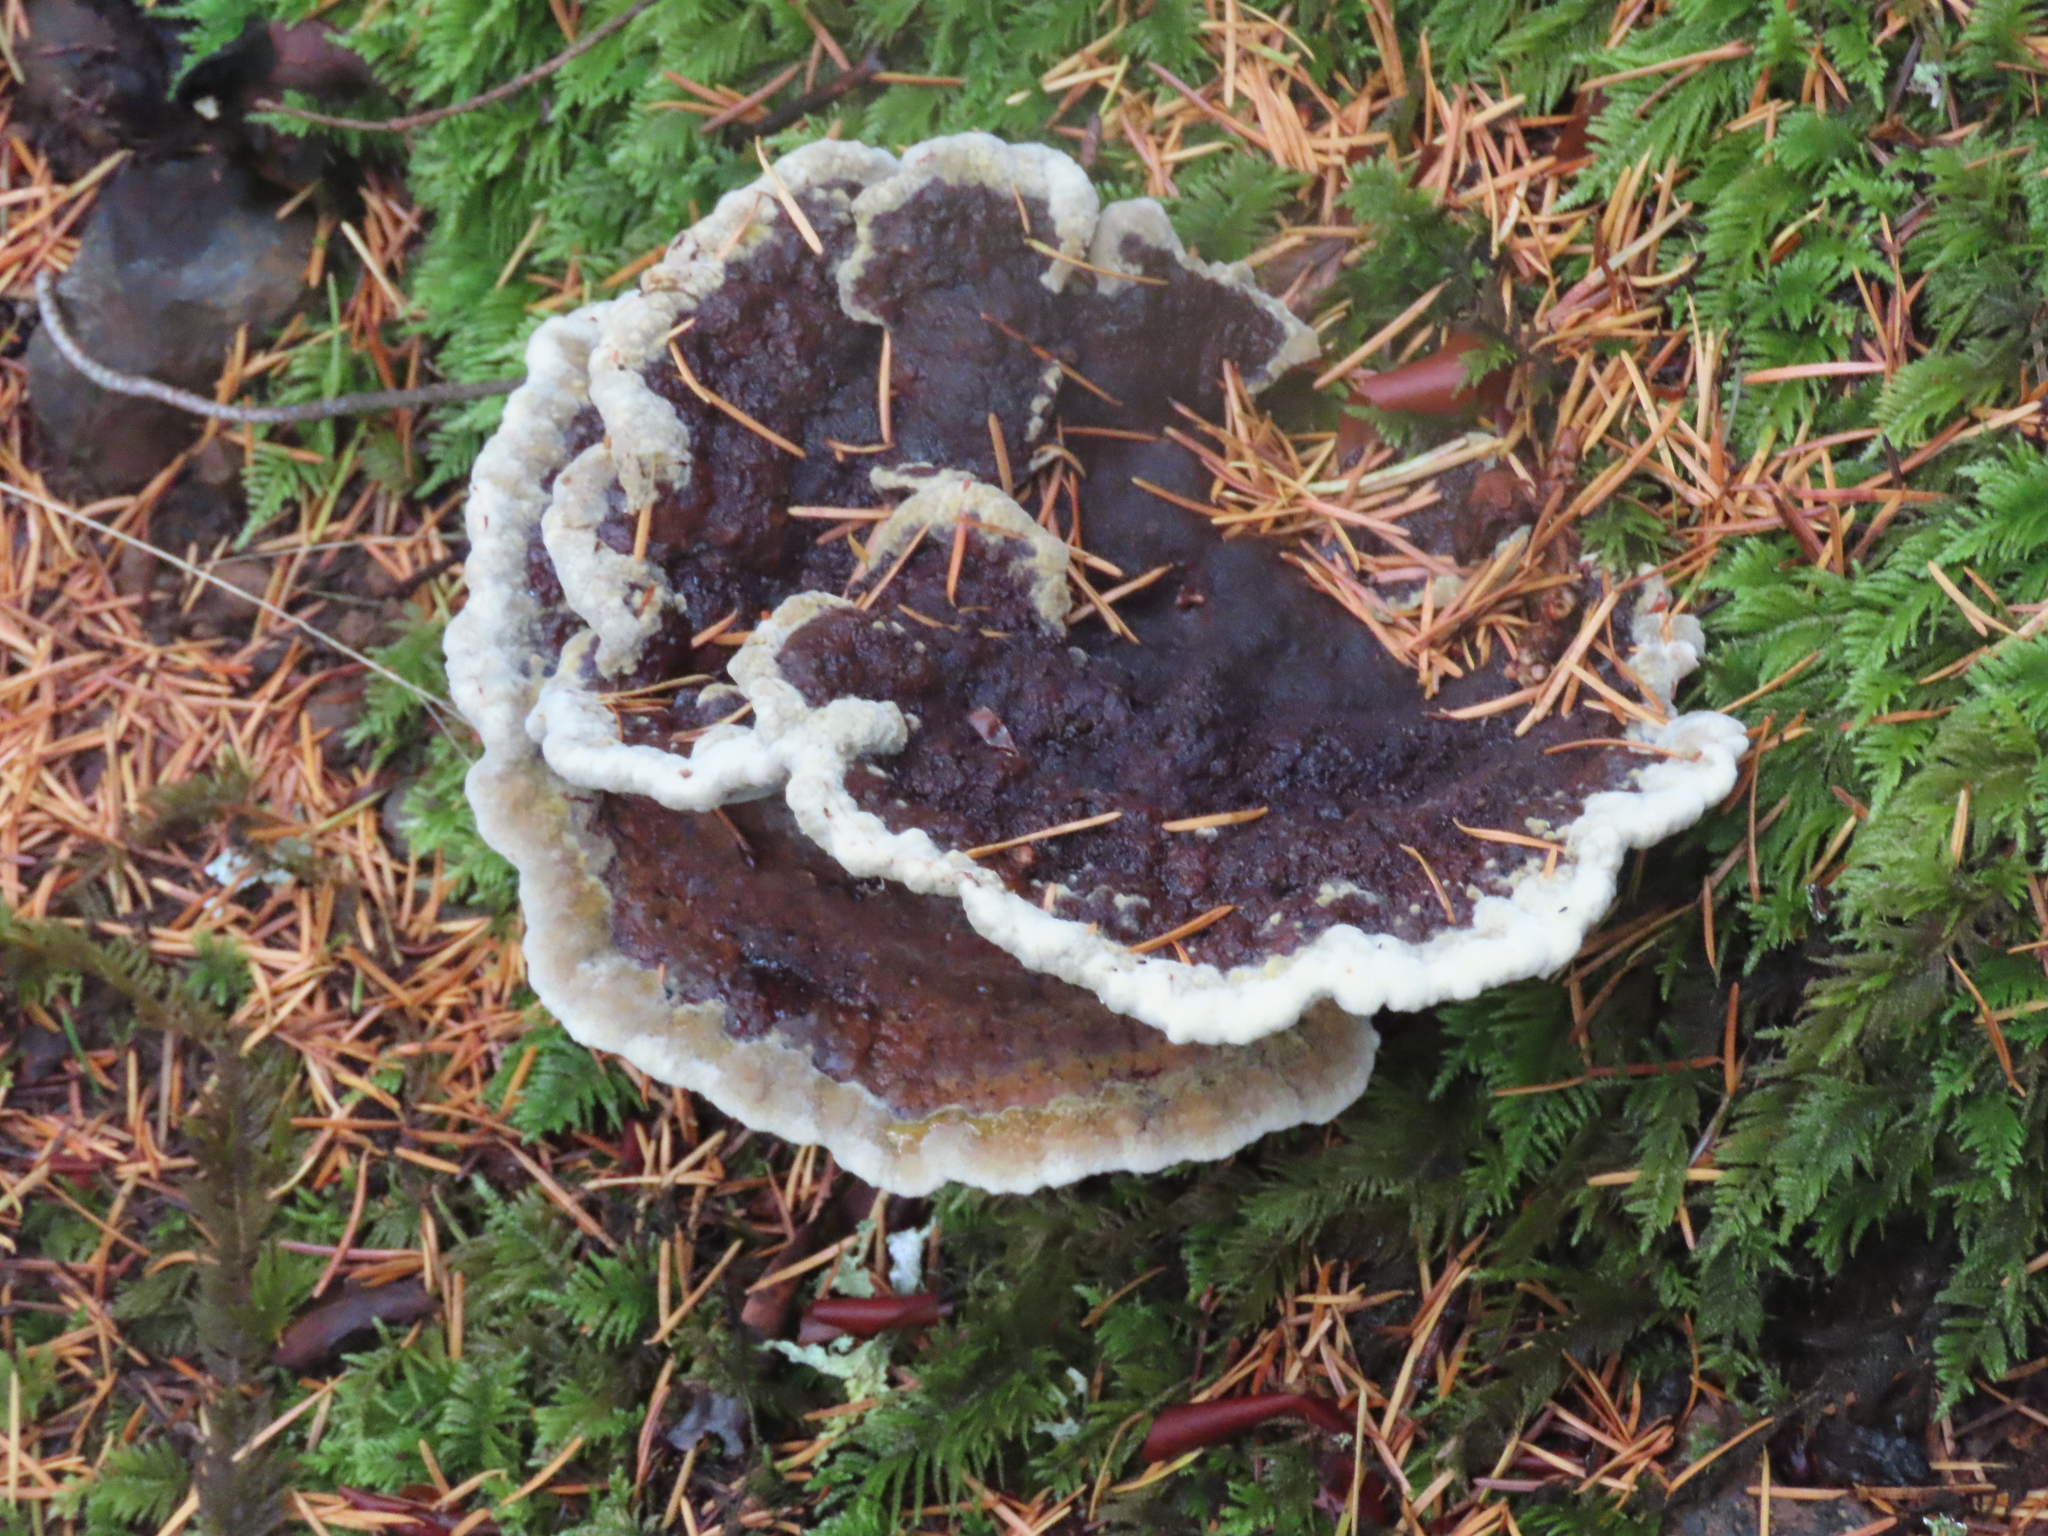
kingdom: Fungi
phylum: Basidiomycota
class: Agaricomycetes
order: Polyporales
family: Laetiporaceae
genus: Phaeolus
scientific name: Phaeolus schweinitzii
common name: Dyer's mazegill
